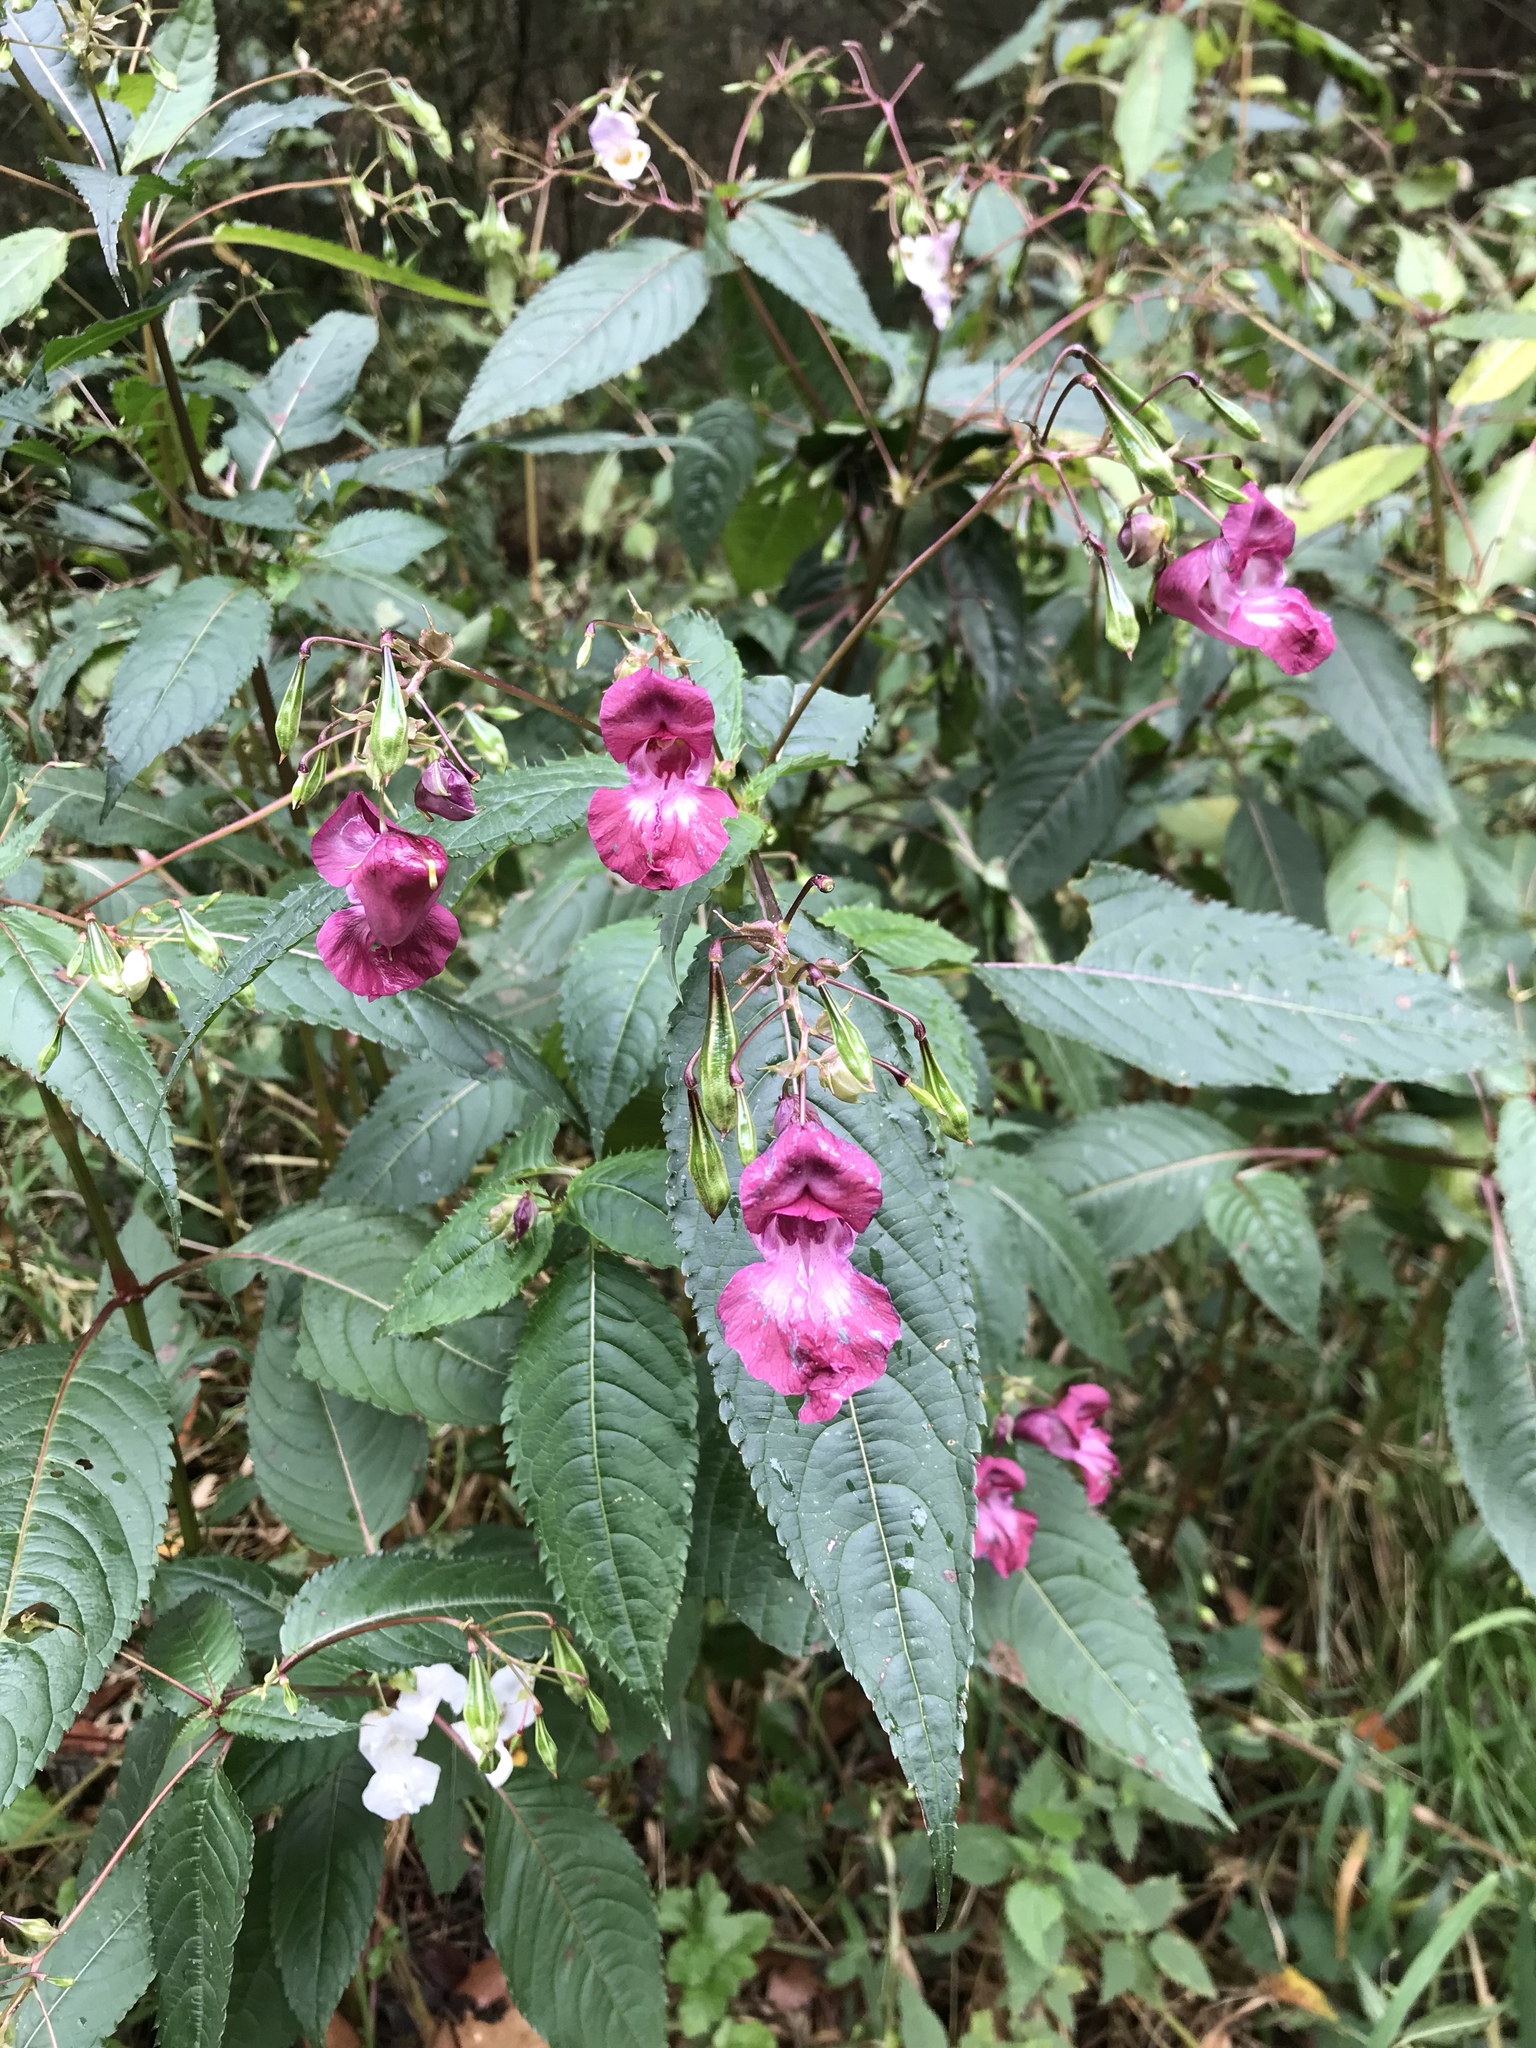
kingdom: Plantae
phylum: Tracheophyta
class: Magnoliopsida
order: Ericales
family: Balsaminaceae
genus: Impatiens
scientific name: Impatiens glandulifera
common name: Himalayan balsam
